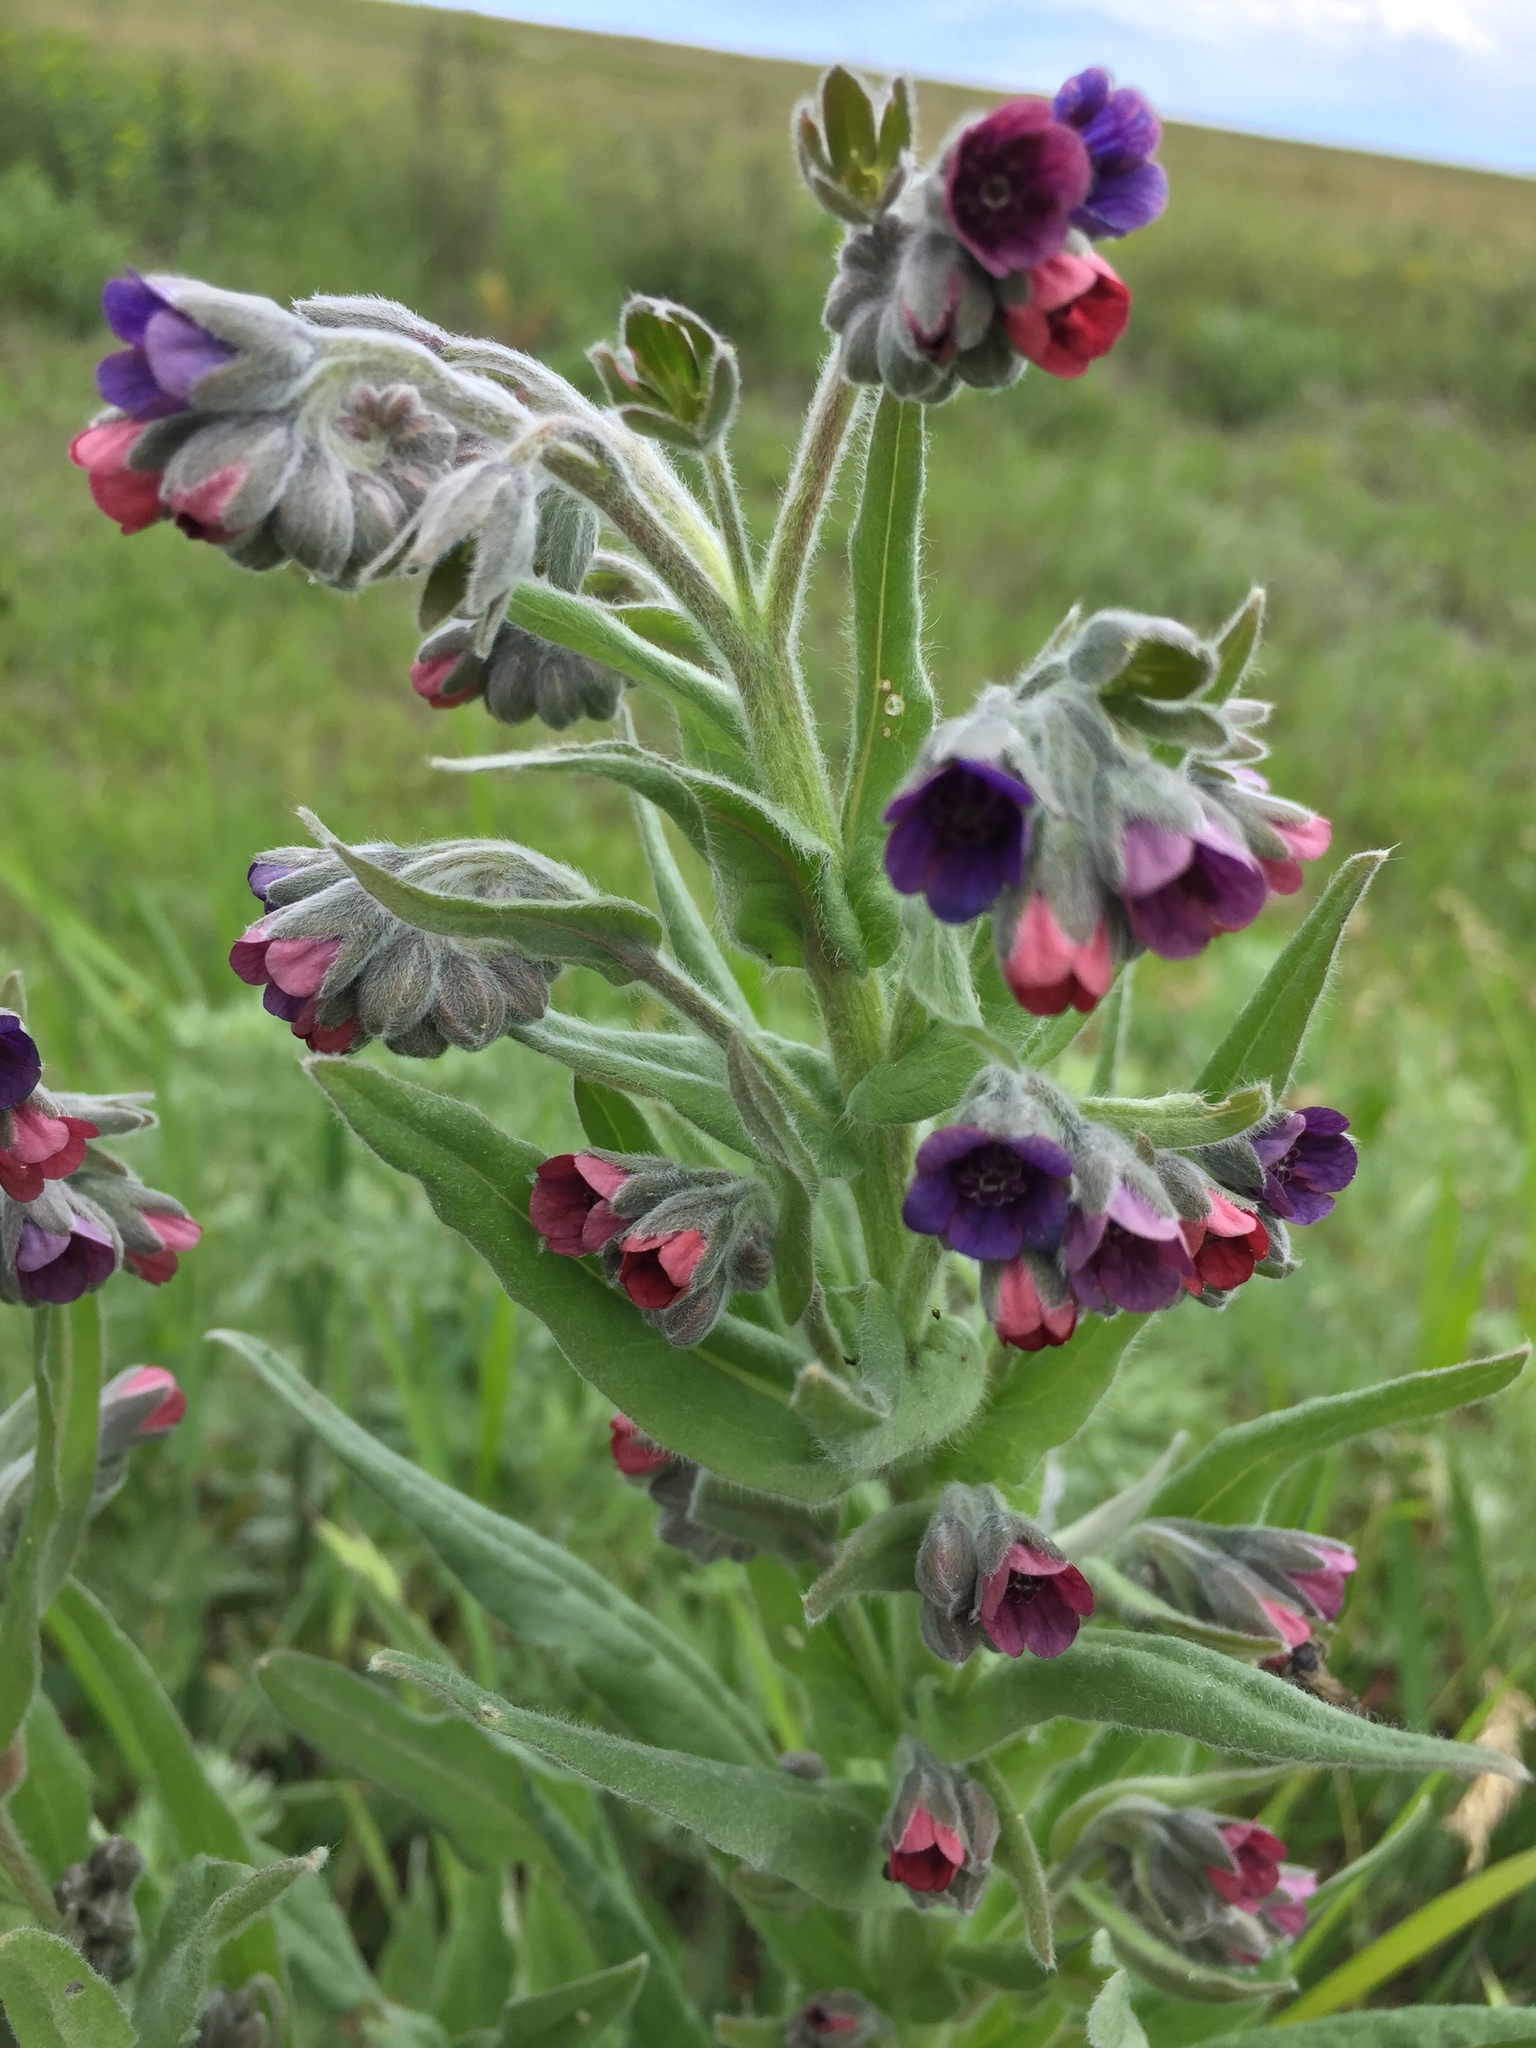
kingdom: Plantae
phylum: Tracheophyta
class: Magnoliopsida
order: Boraginales
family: Boraginaceae
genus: Cynoglossum
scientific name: Cynoglossum officinale
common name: Hound's-tongue
